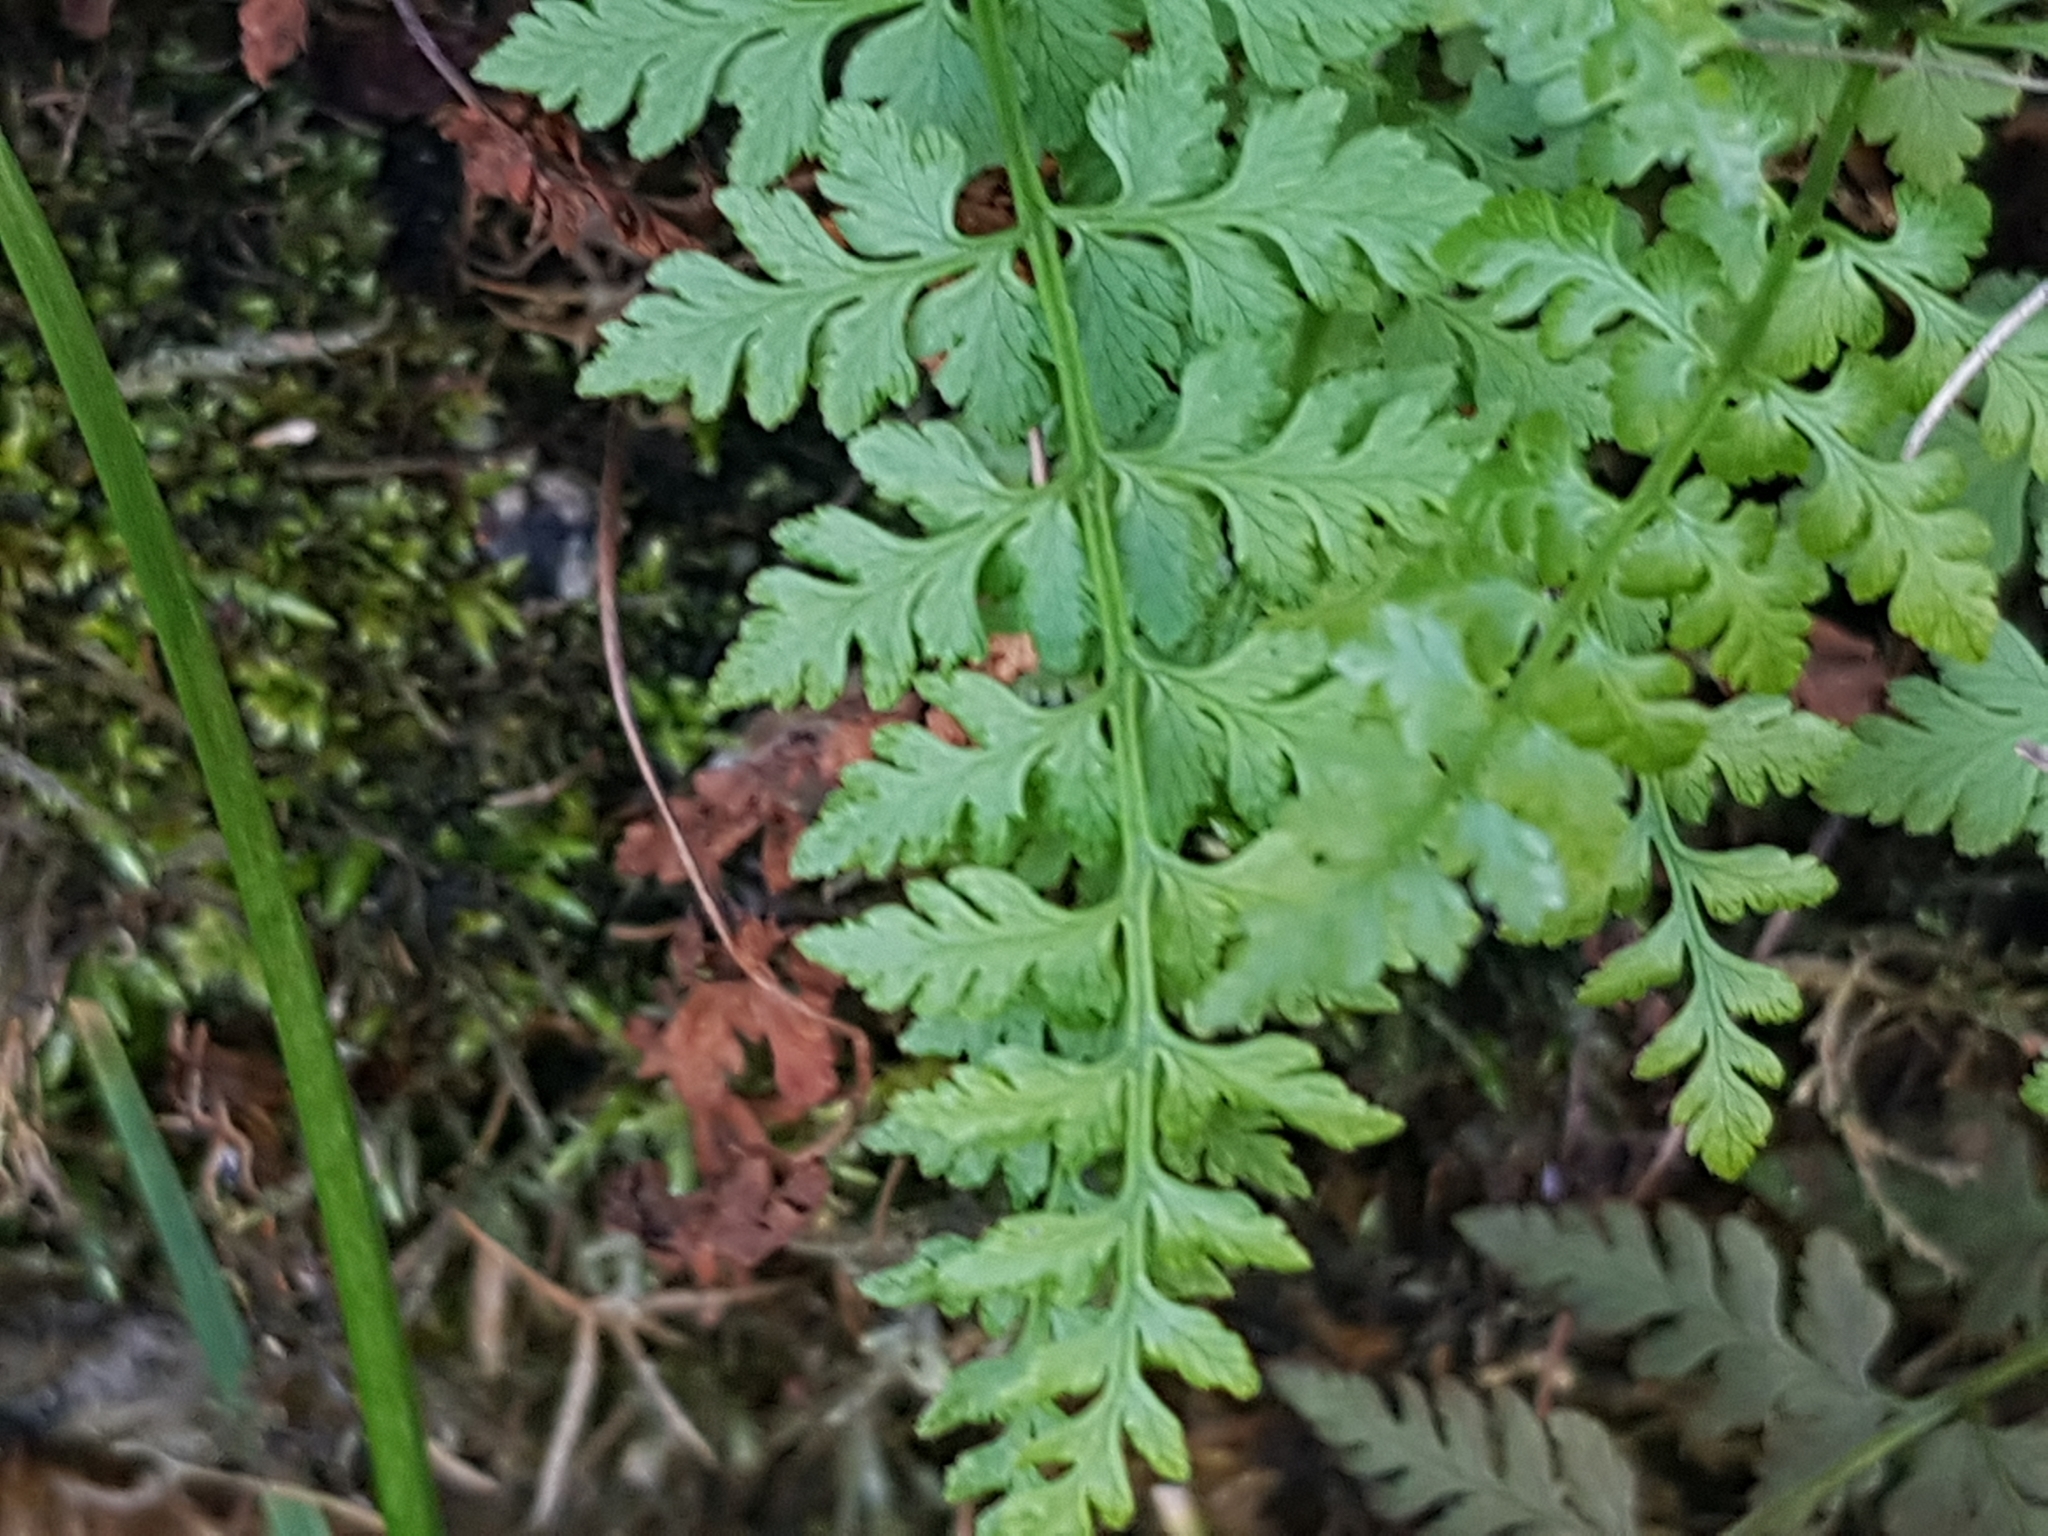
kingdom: Plantae
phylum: Tracheophyta
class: Polypodiopsida
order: Polypodiales
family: Cystopteridaceae
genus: Cystopteris
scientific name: Cystopteris fragilis
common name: Brittle bladder fern
